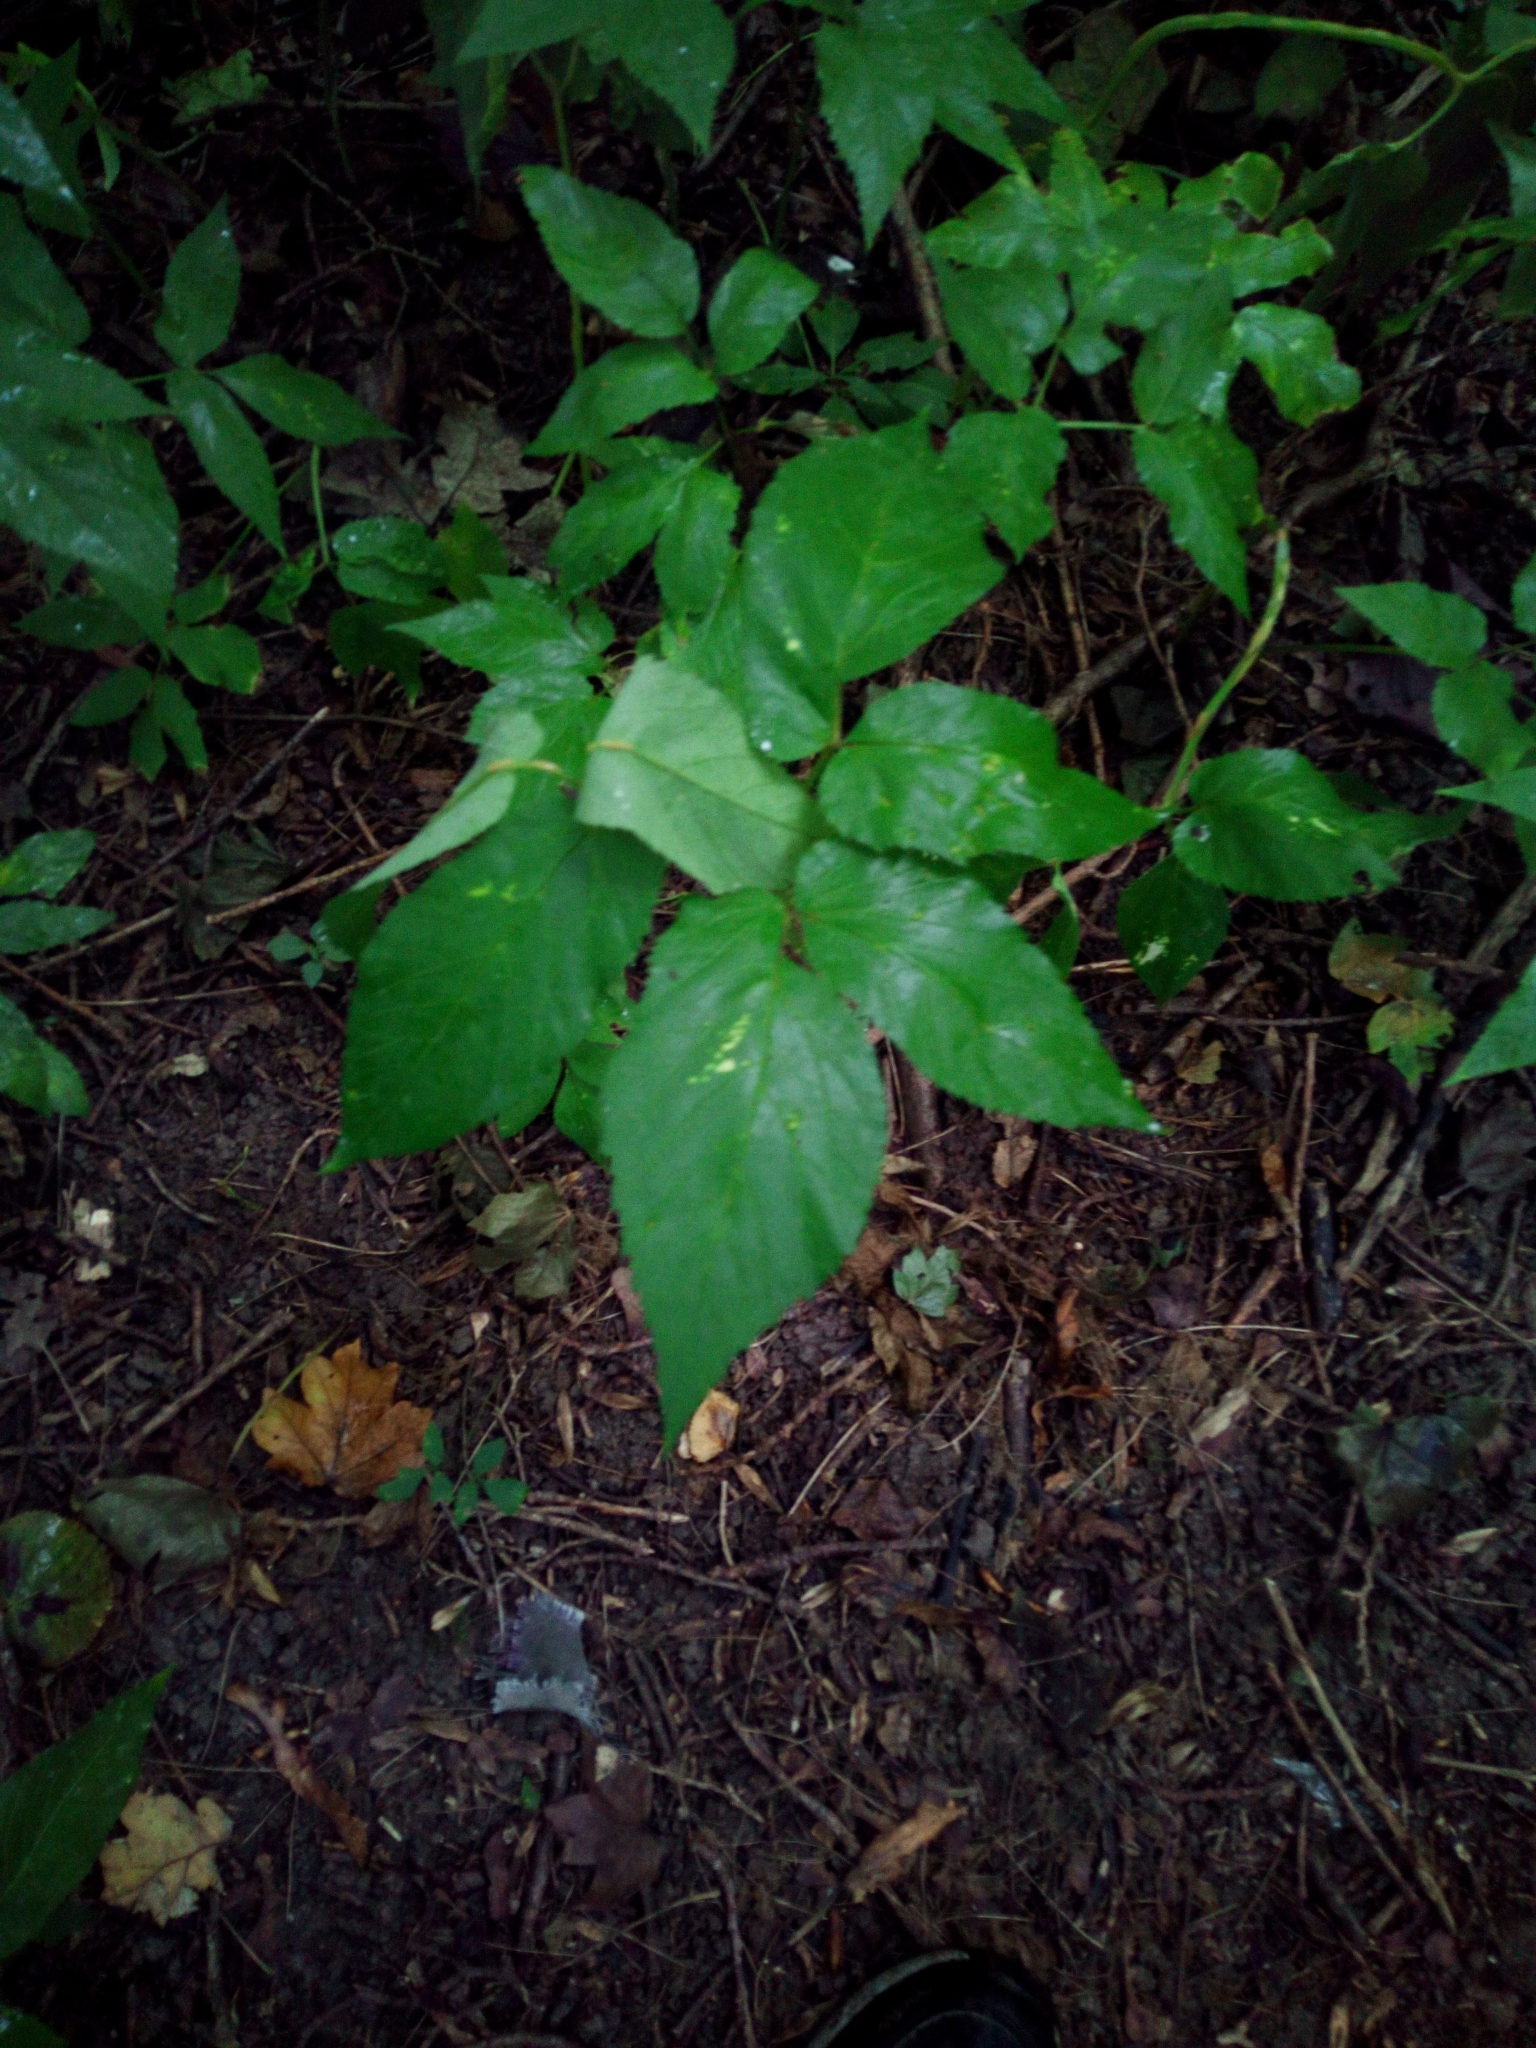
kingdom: Plantae
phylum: Tracheophyta
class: Magnoliopsida
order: Apiales
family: Apiaceae
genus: Aegopodium
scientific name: Aegopodium podagraria
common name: Ground-elder
